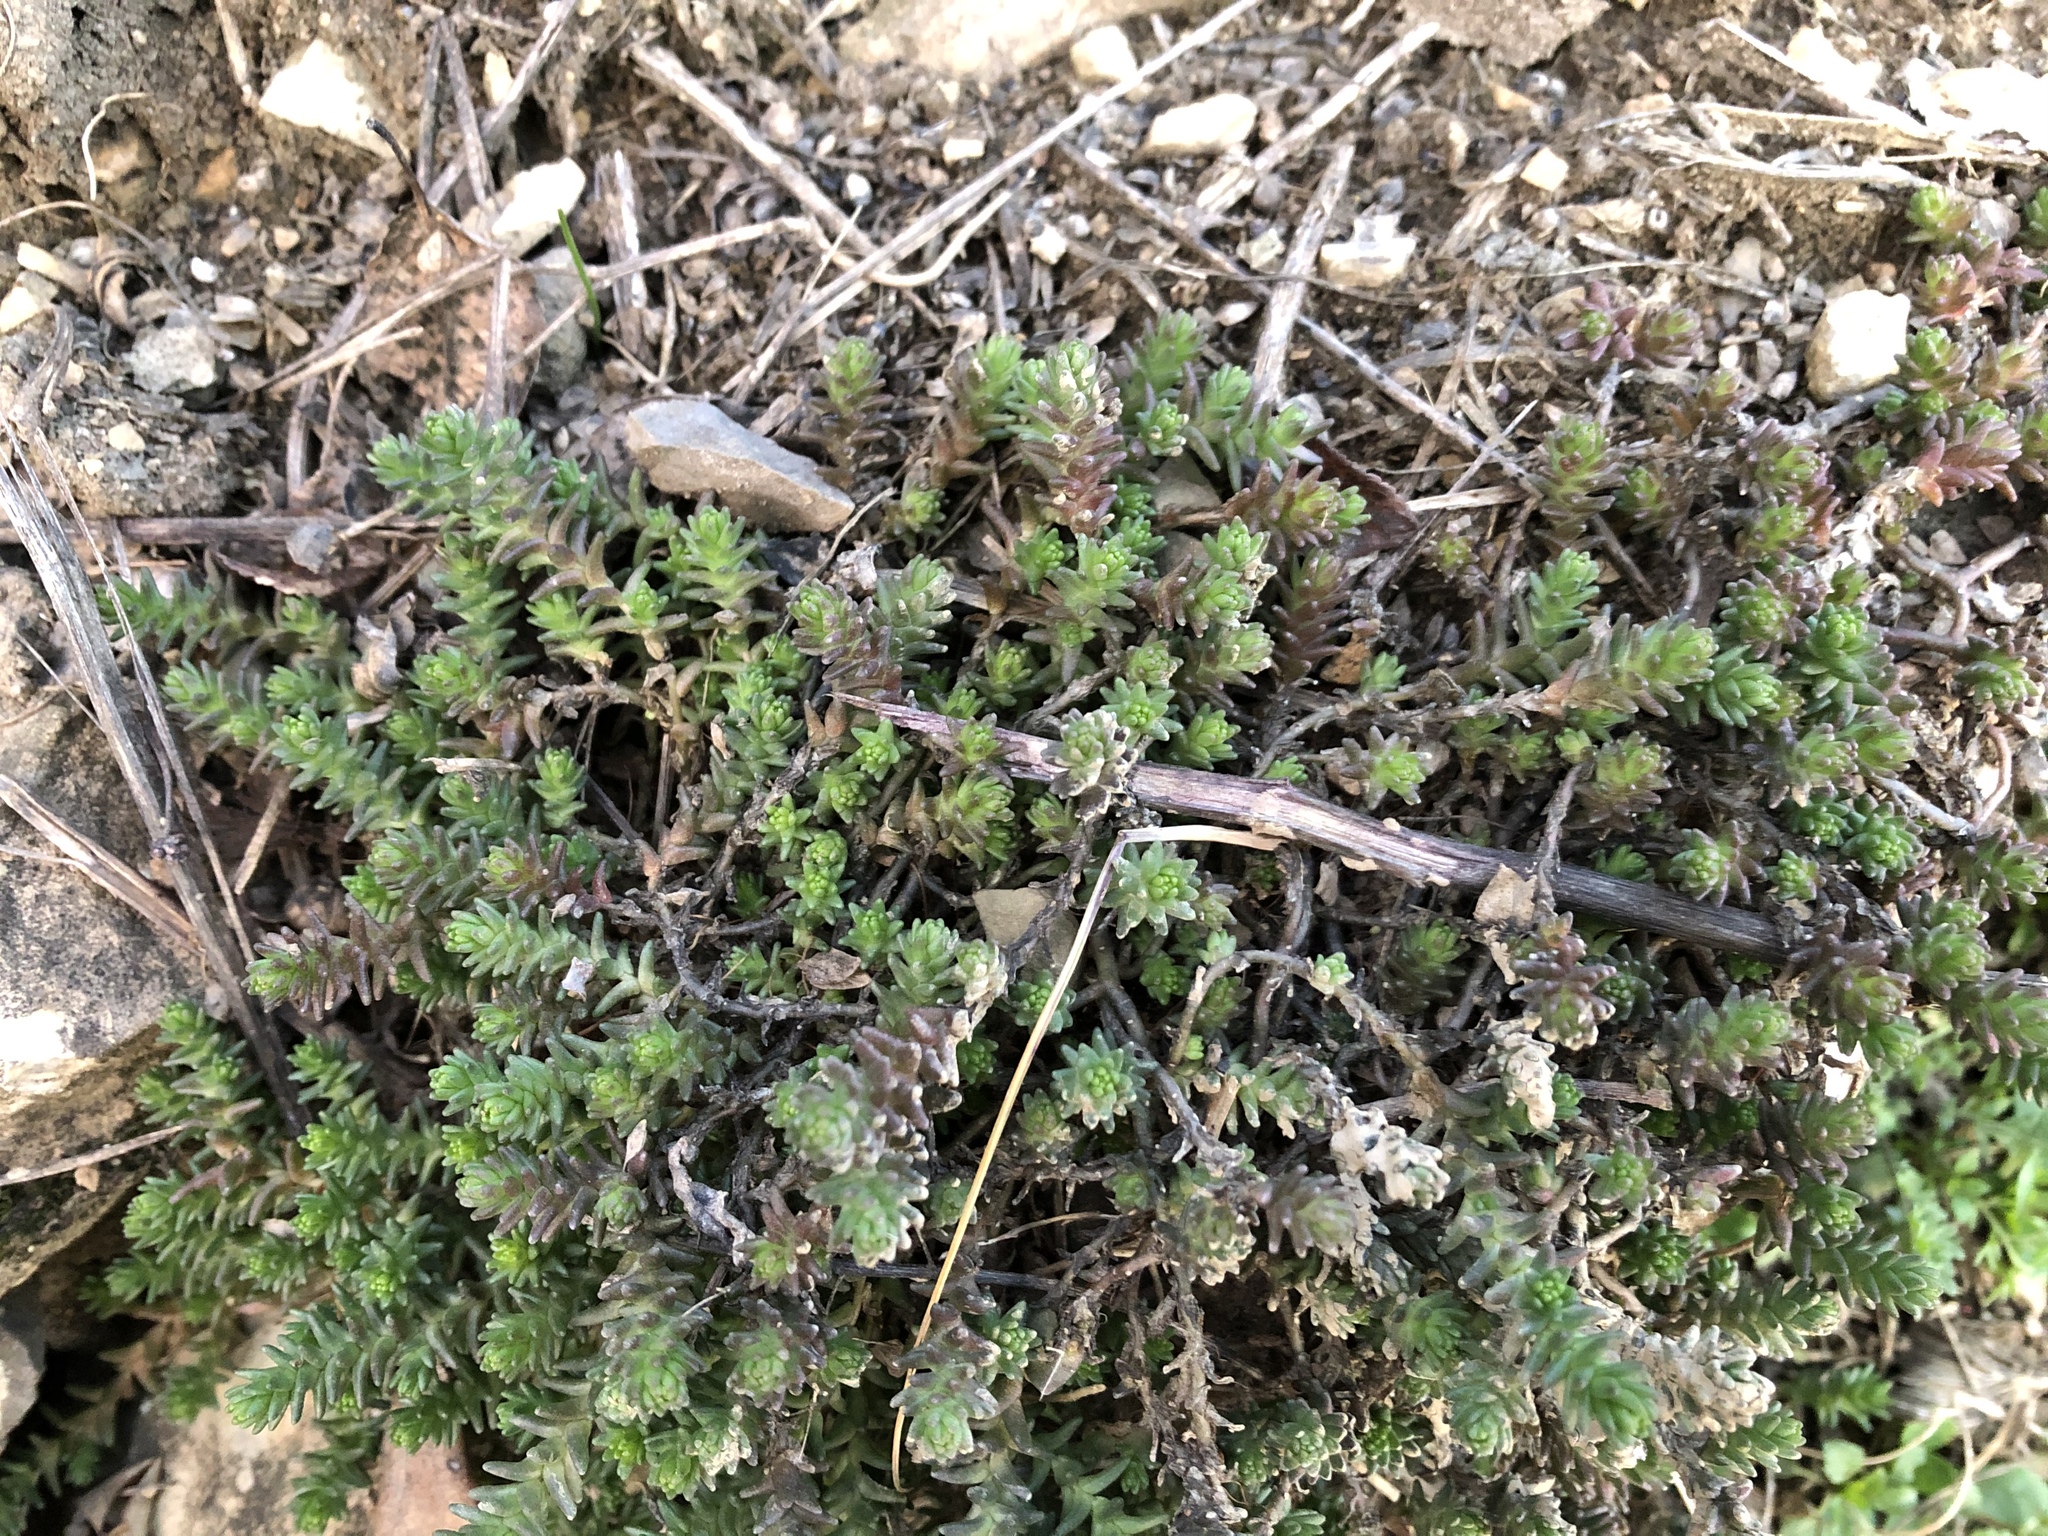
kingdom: Plantae
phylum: Tracheophyta
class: Magnoliopsida
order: Saxifragales
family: Crassulaceae
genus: Sedum
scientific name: Sedum acre
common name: Biting stonecrop
